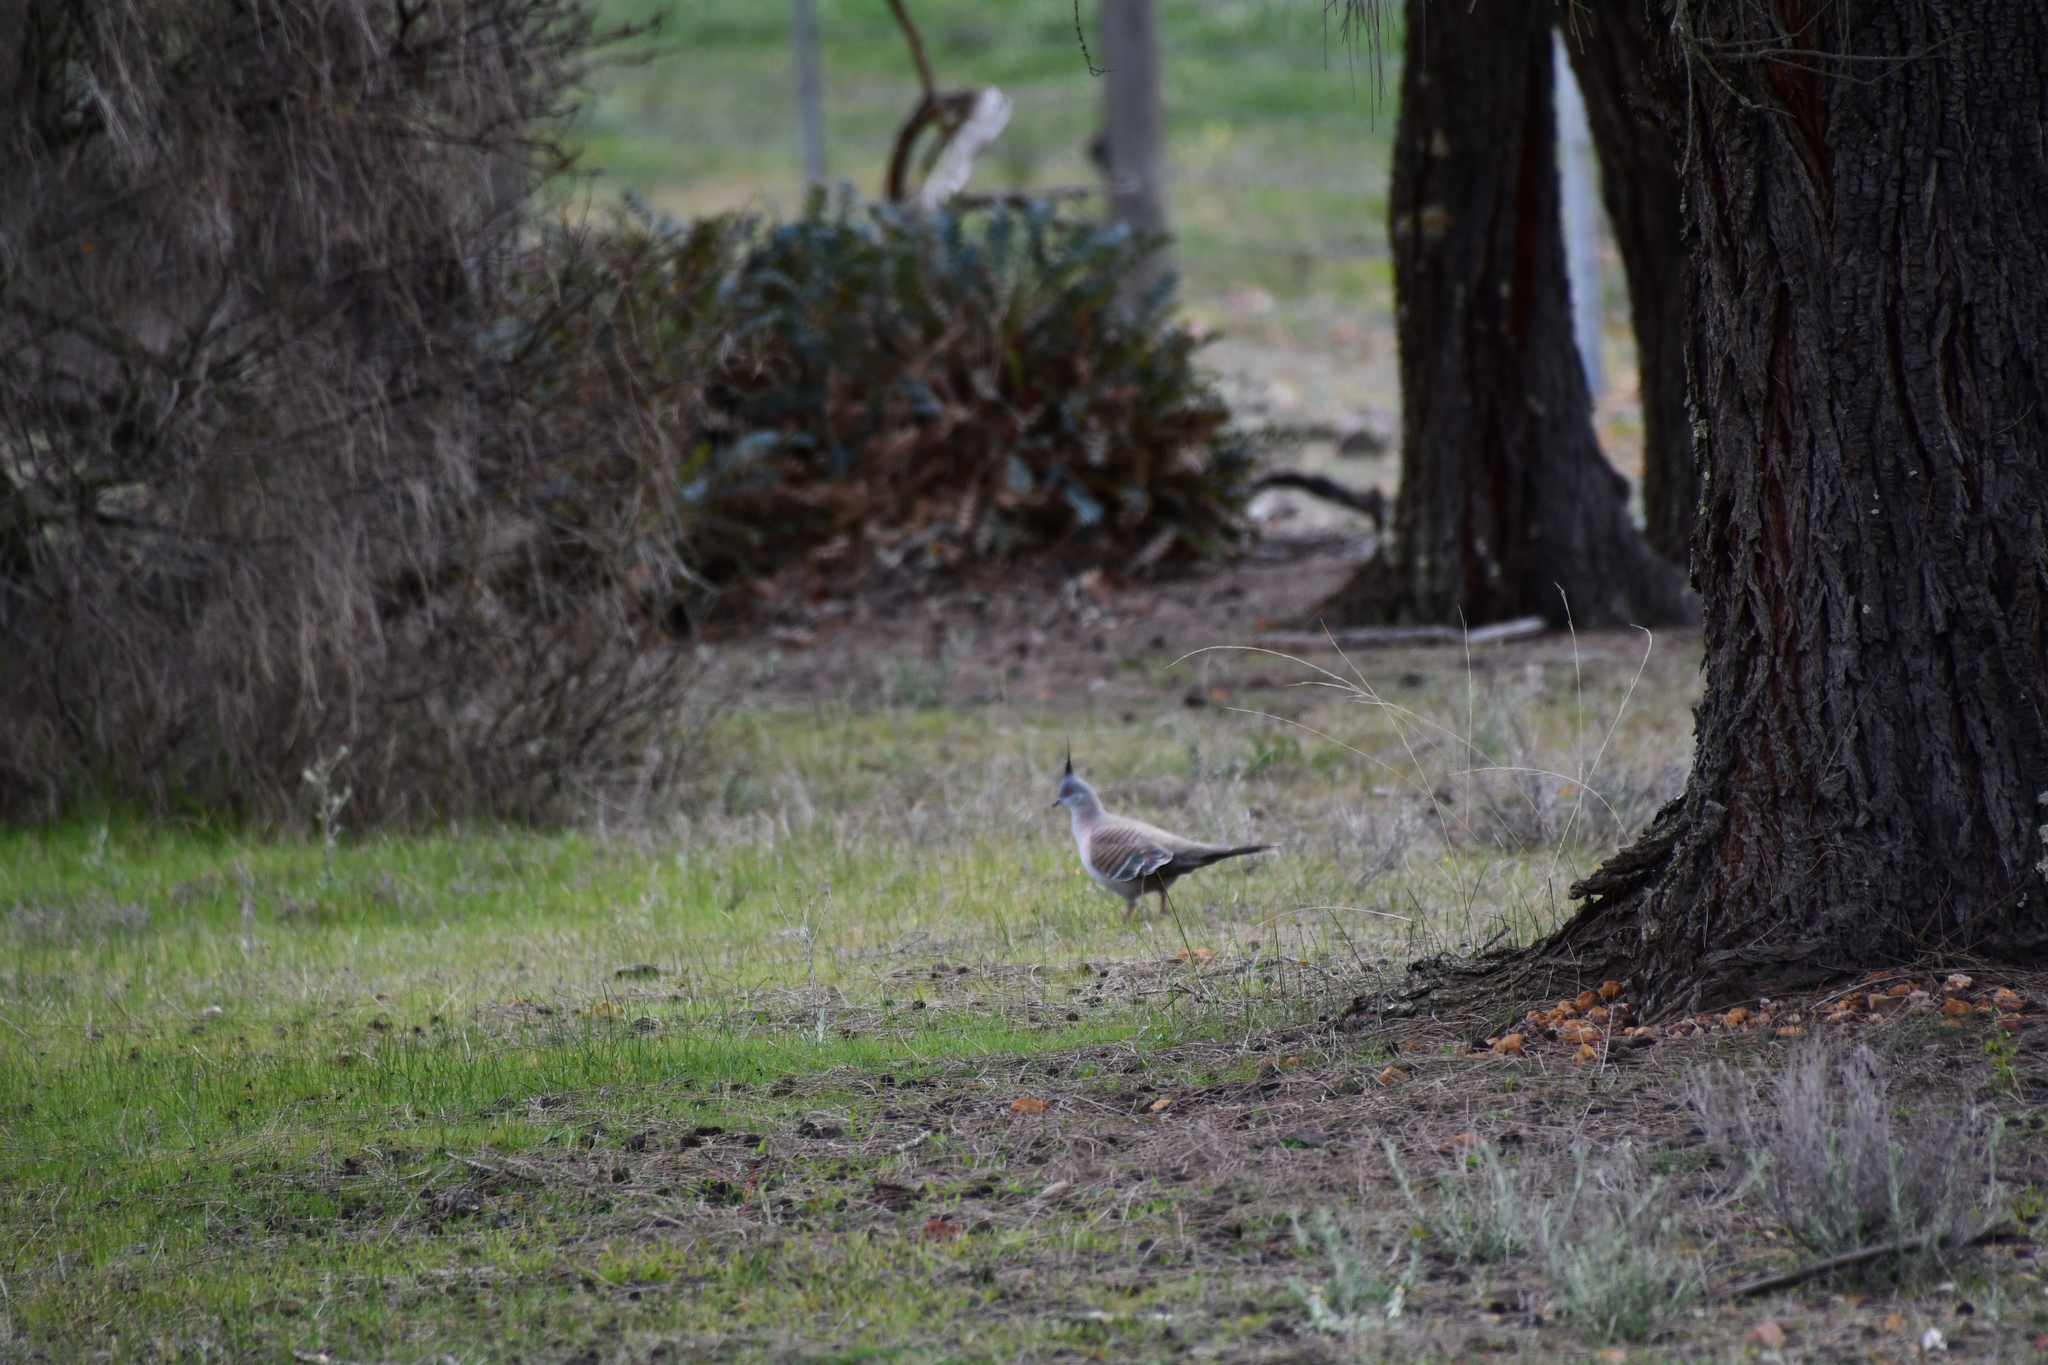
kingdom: Animalia
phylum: Chordata
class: Aves
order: Columbiformes
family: Columbidae
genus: Ocyphaps
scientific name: Ocyphaps lophotes
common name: Crested pigeon
